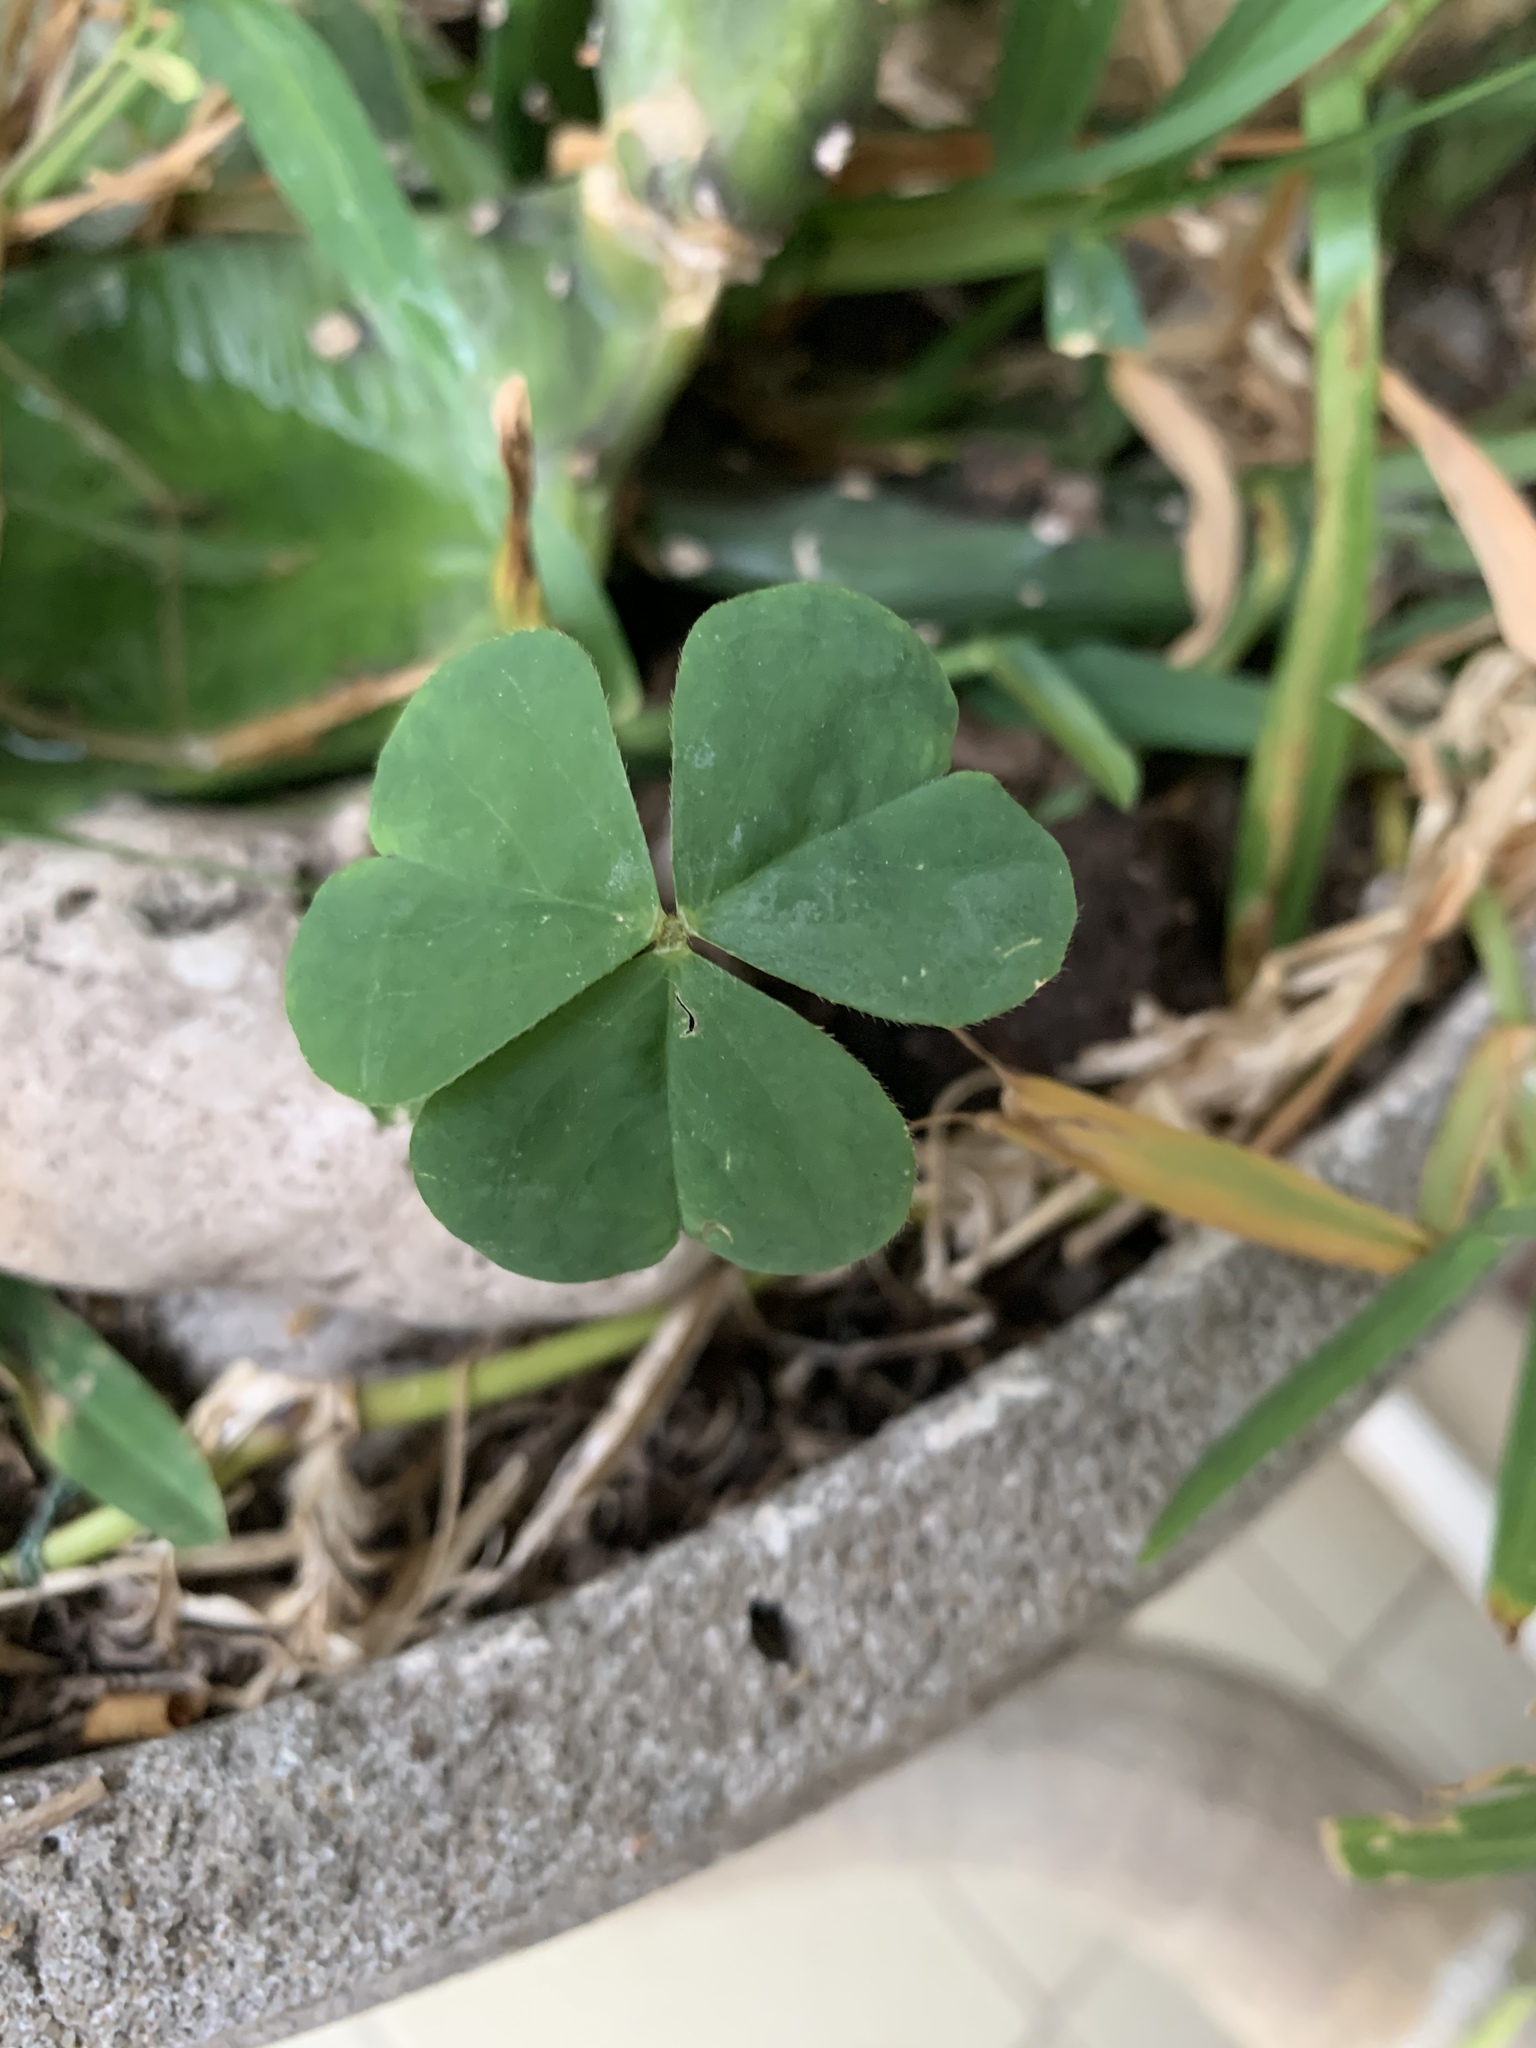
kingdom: Plantae
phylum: Tracheophyta
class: Magnoliopsida
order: Oxalidales
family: Oxalidaceae
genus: Oxalis
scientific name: Oxalis
